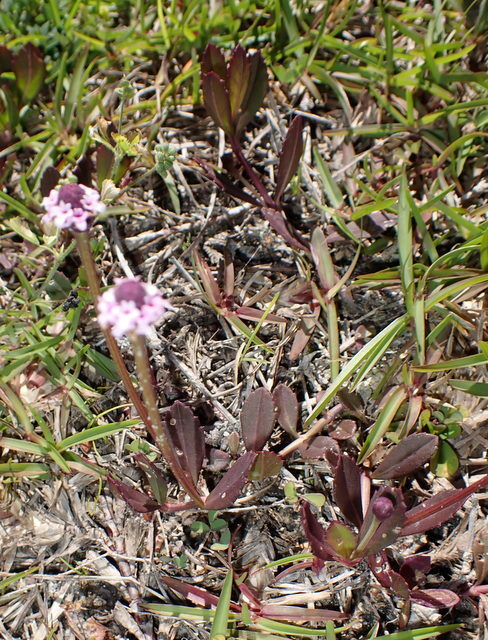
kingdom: Plantae
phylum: Tracheophyta
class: Magnoliopsida
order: Lamiales
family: Verbenaceae
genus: Phyla
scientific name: Phyla nodiflora
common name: Frogfruit
